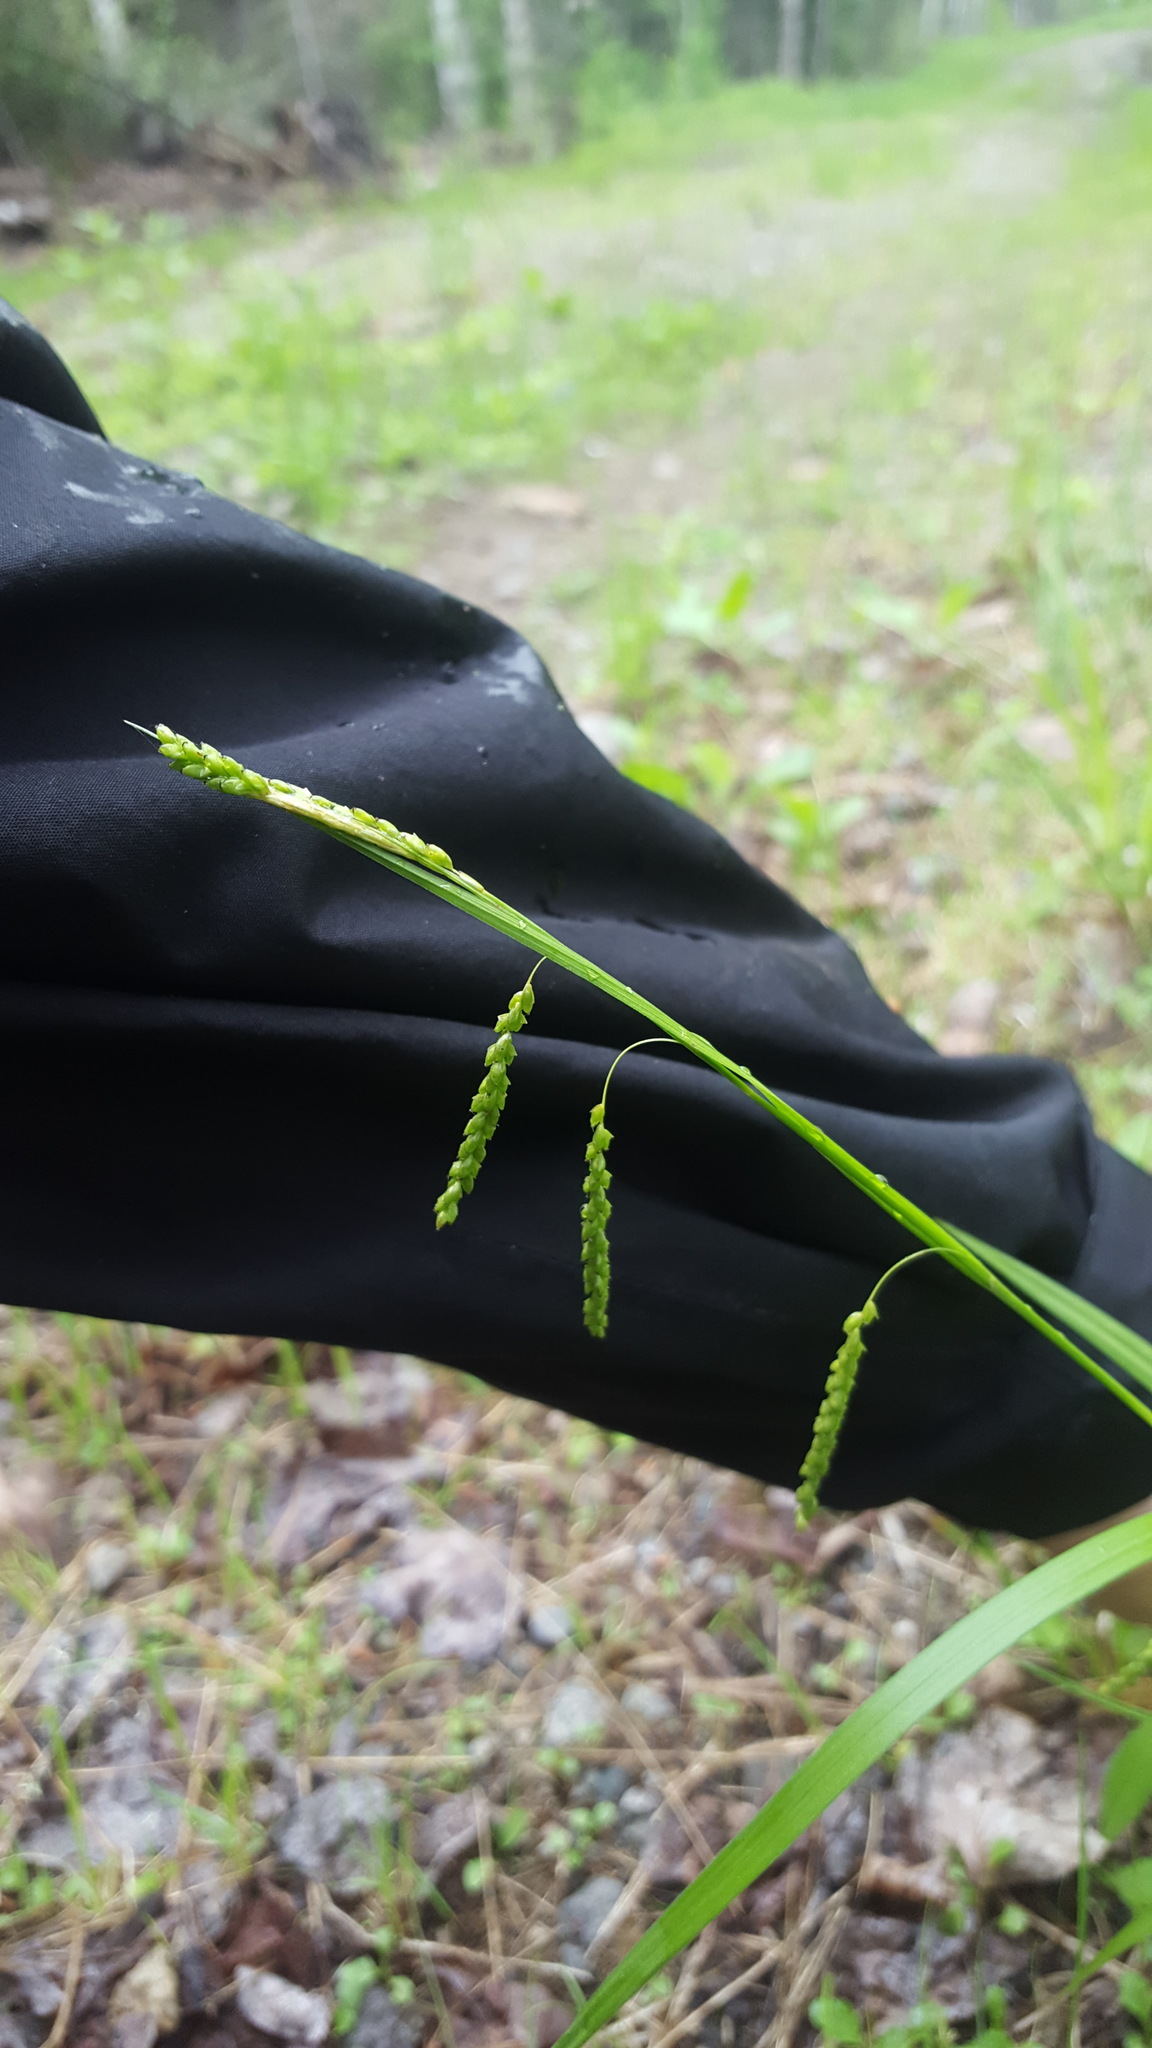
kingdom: Plantae
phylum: Tracheophyta
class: Liliopsida
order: Poales
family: Cyperaceae
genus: Carex
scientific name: Carex gracillima
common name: Graceful sedge
